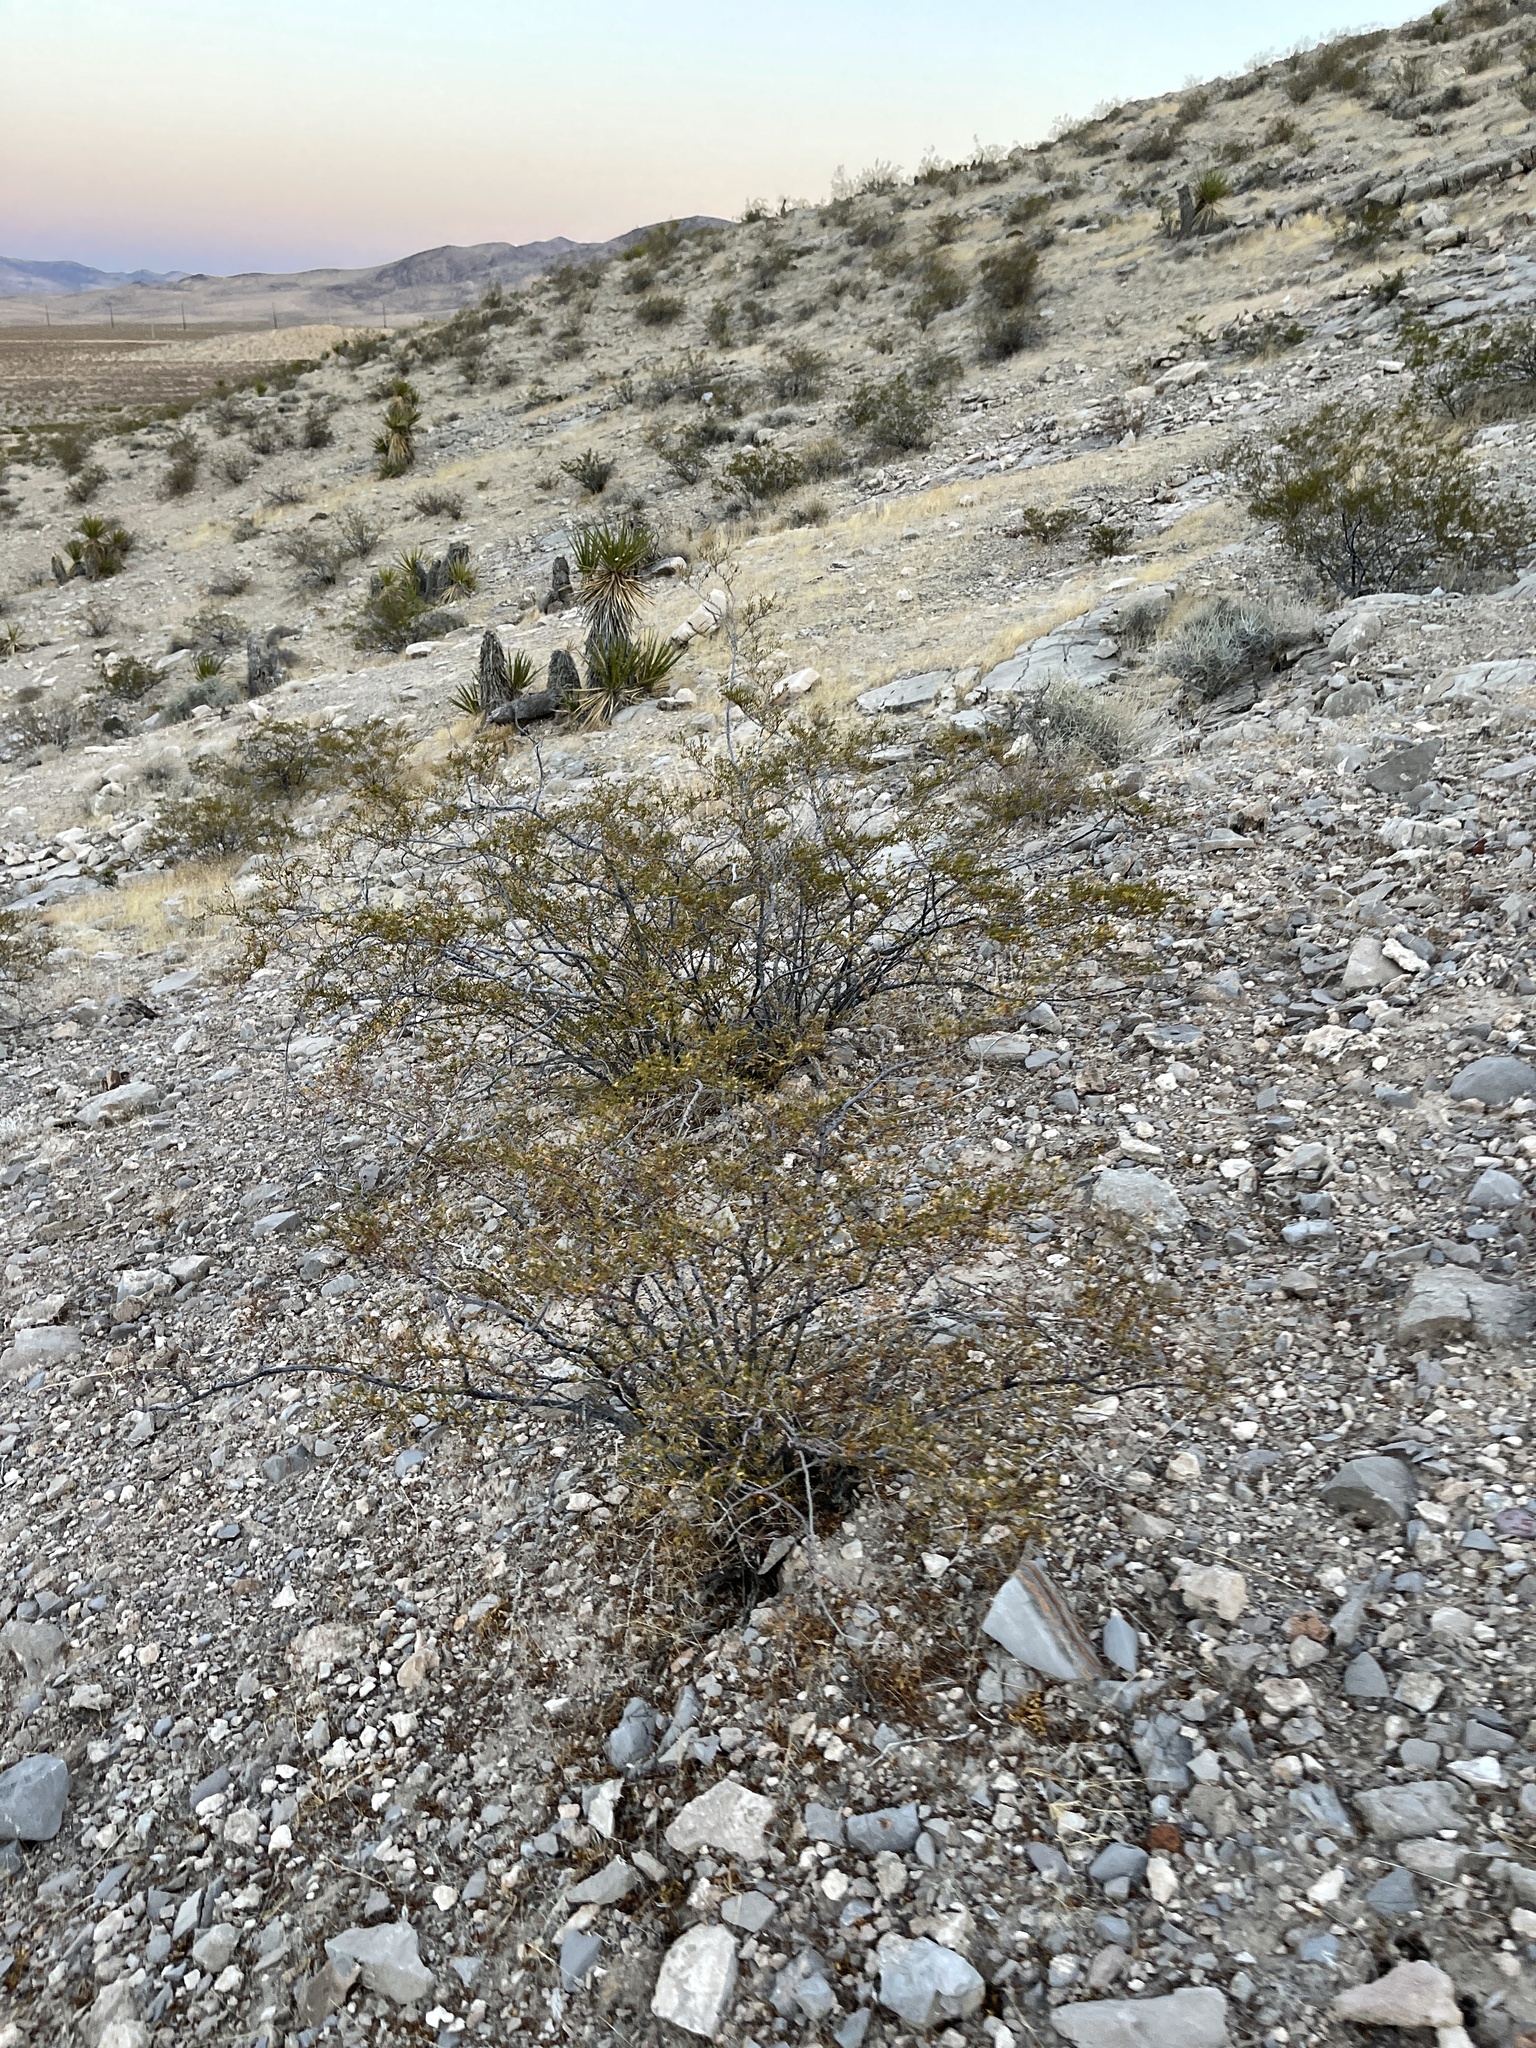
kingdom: Plantae
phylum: Tracheophyta
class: Magnoliopsida
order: Zygophyllales
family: Zygophyllaceae
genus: Larrea
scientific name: Larrea tridentata
